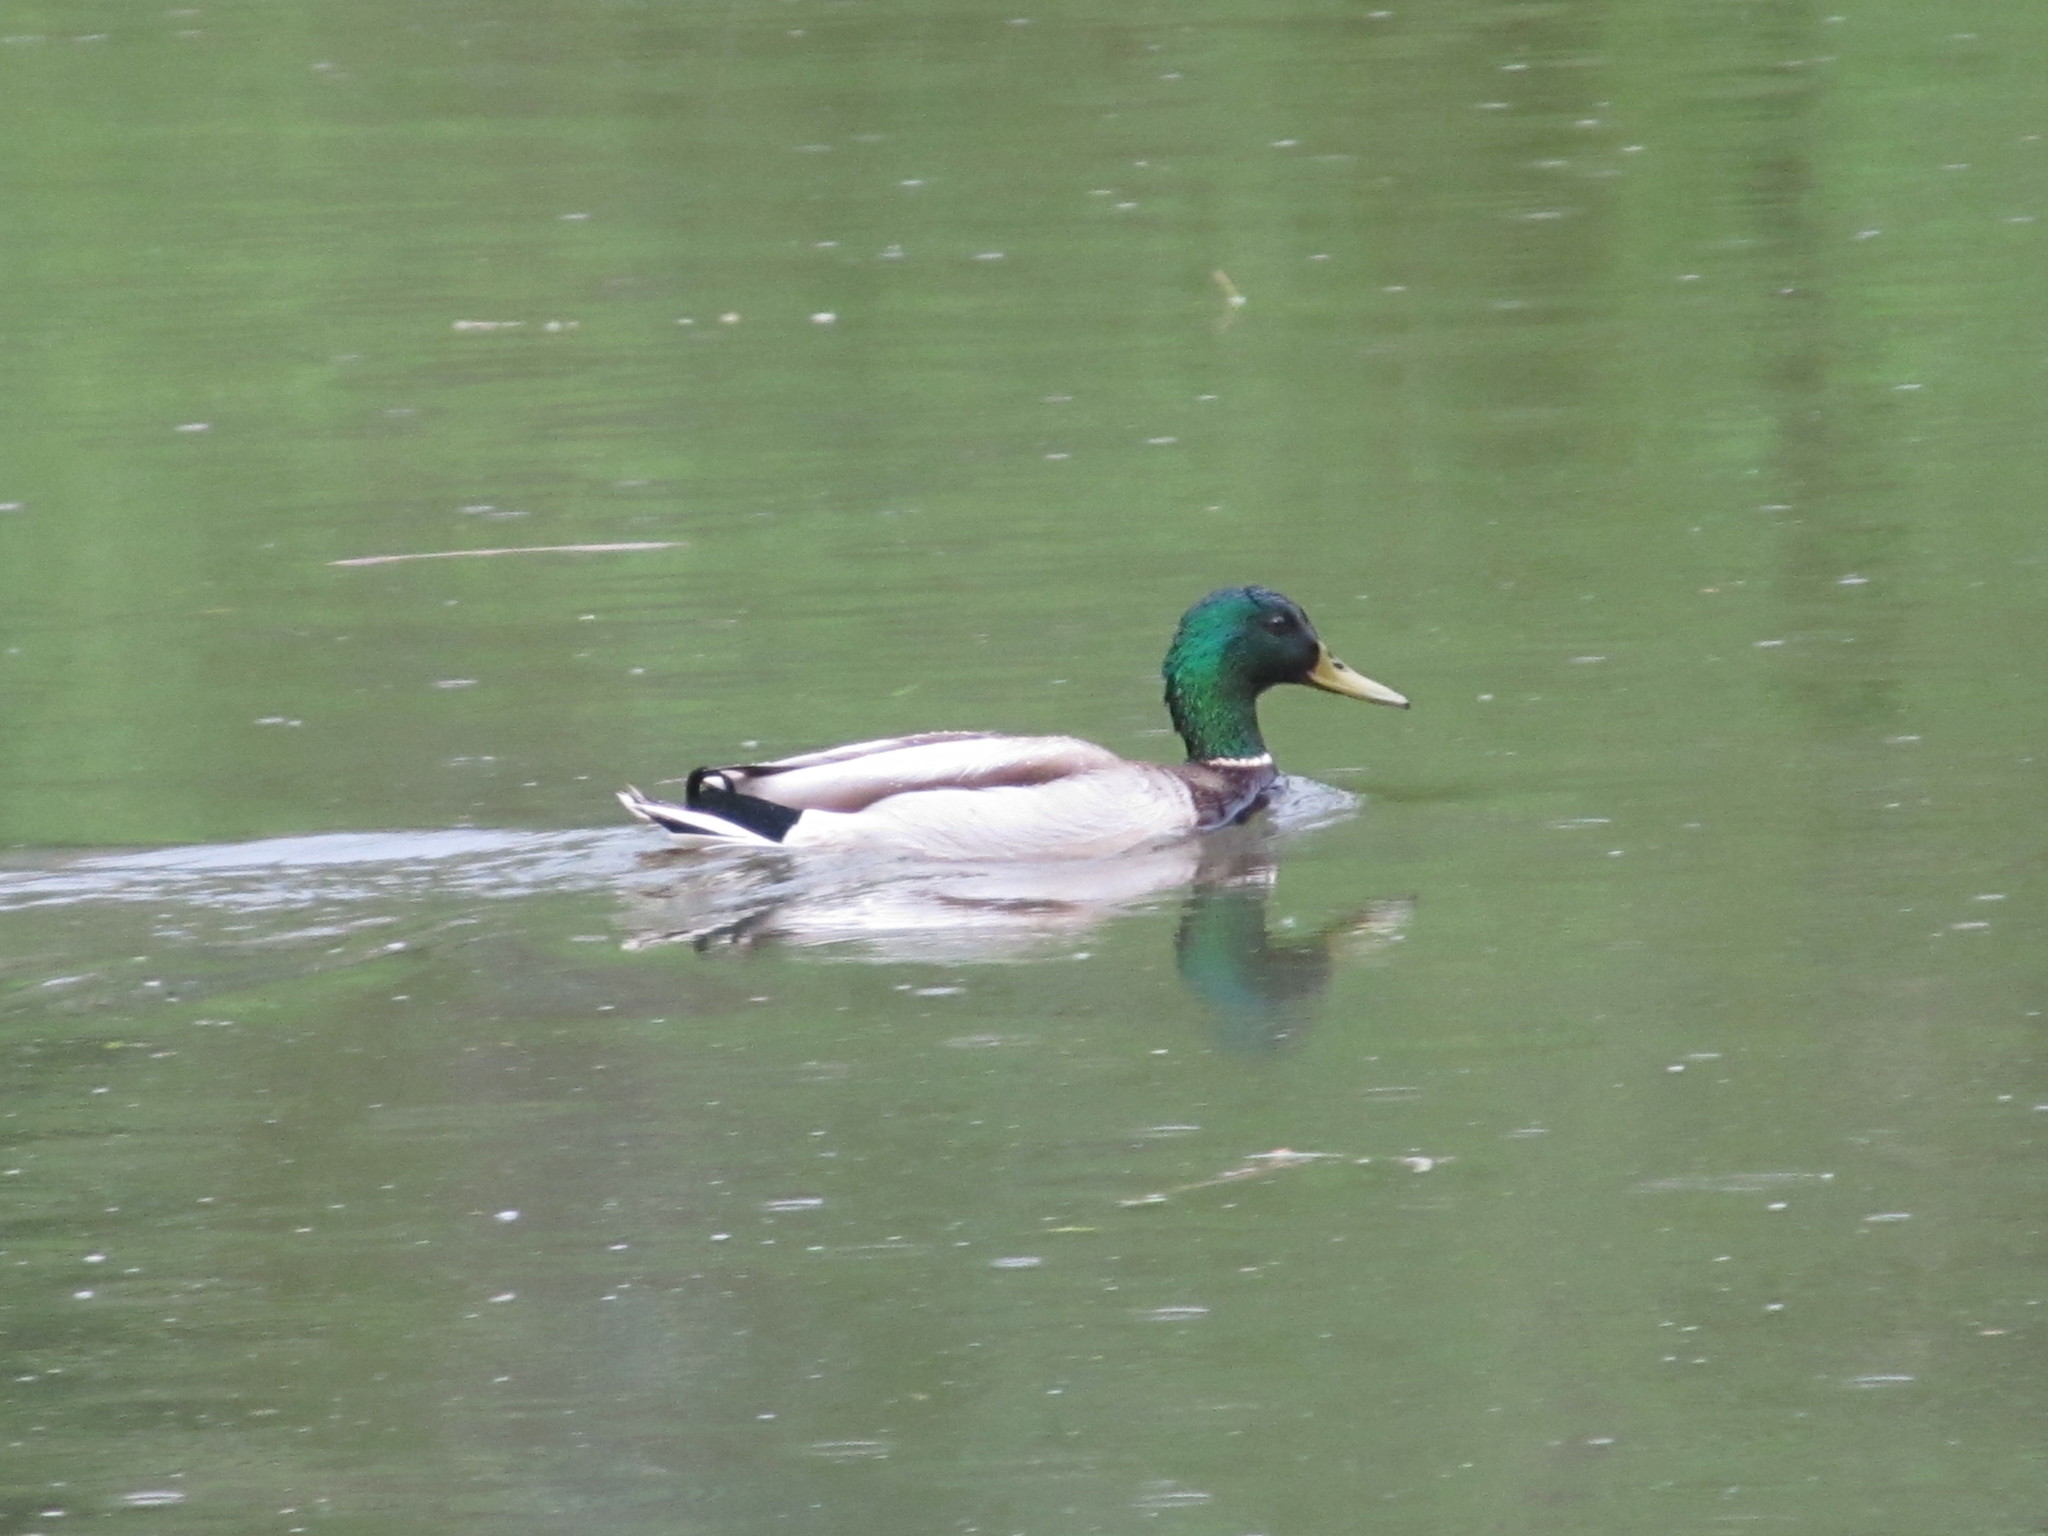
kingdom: Animalia
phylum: Chordata
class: Aves
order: Anseriformes
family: Anatidae
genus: Anas
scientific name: Anas platyrhynchos
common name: Mallard
